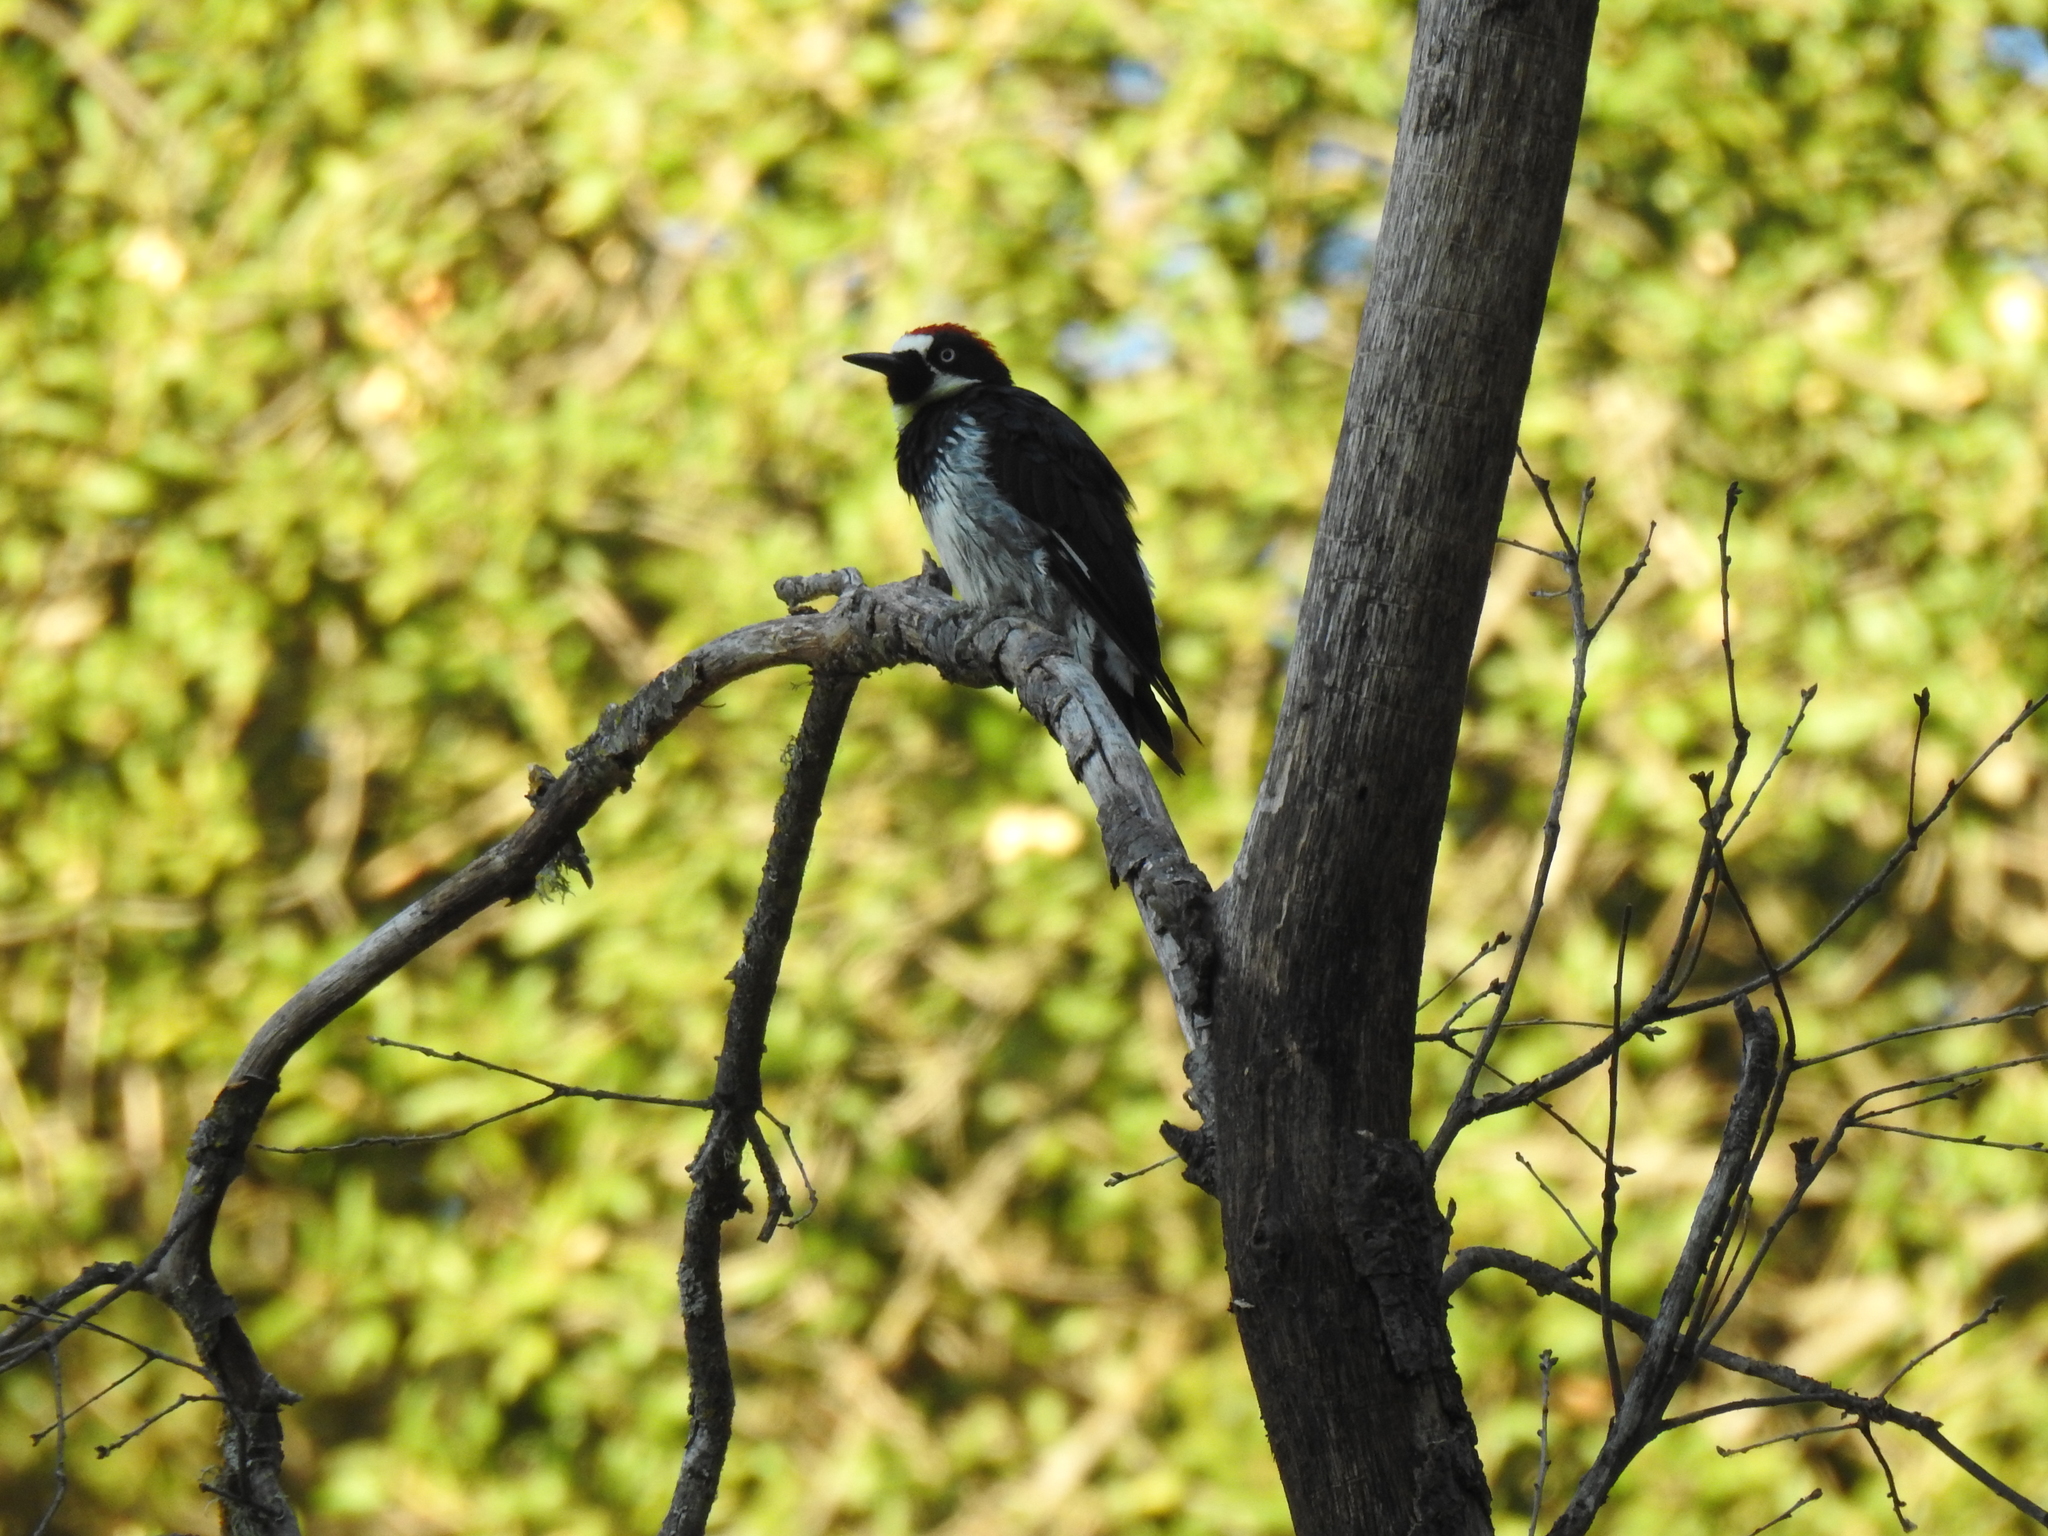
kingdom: Animalia
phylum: Chordata
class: Aves
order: Piciformes
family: Picidae
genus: Melanerpes
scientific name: Melanerpes formicivorus
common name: Acorn woodpecker
